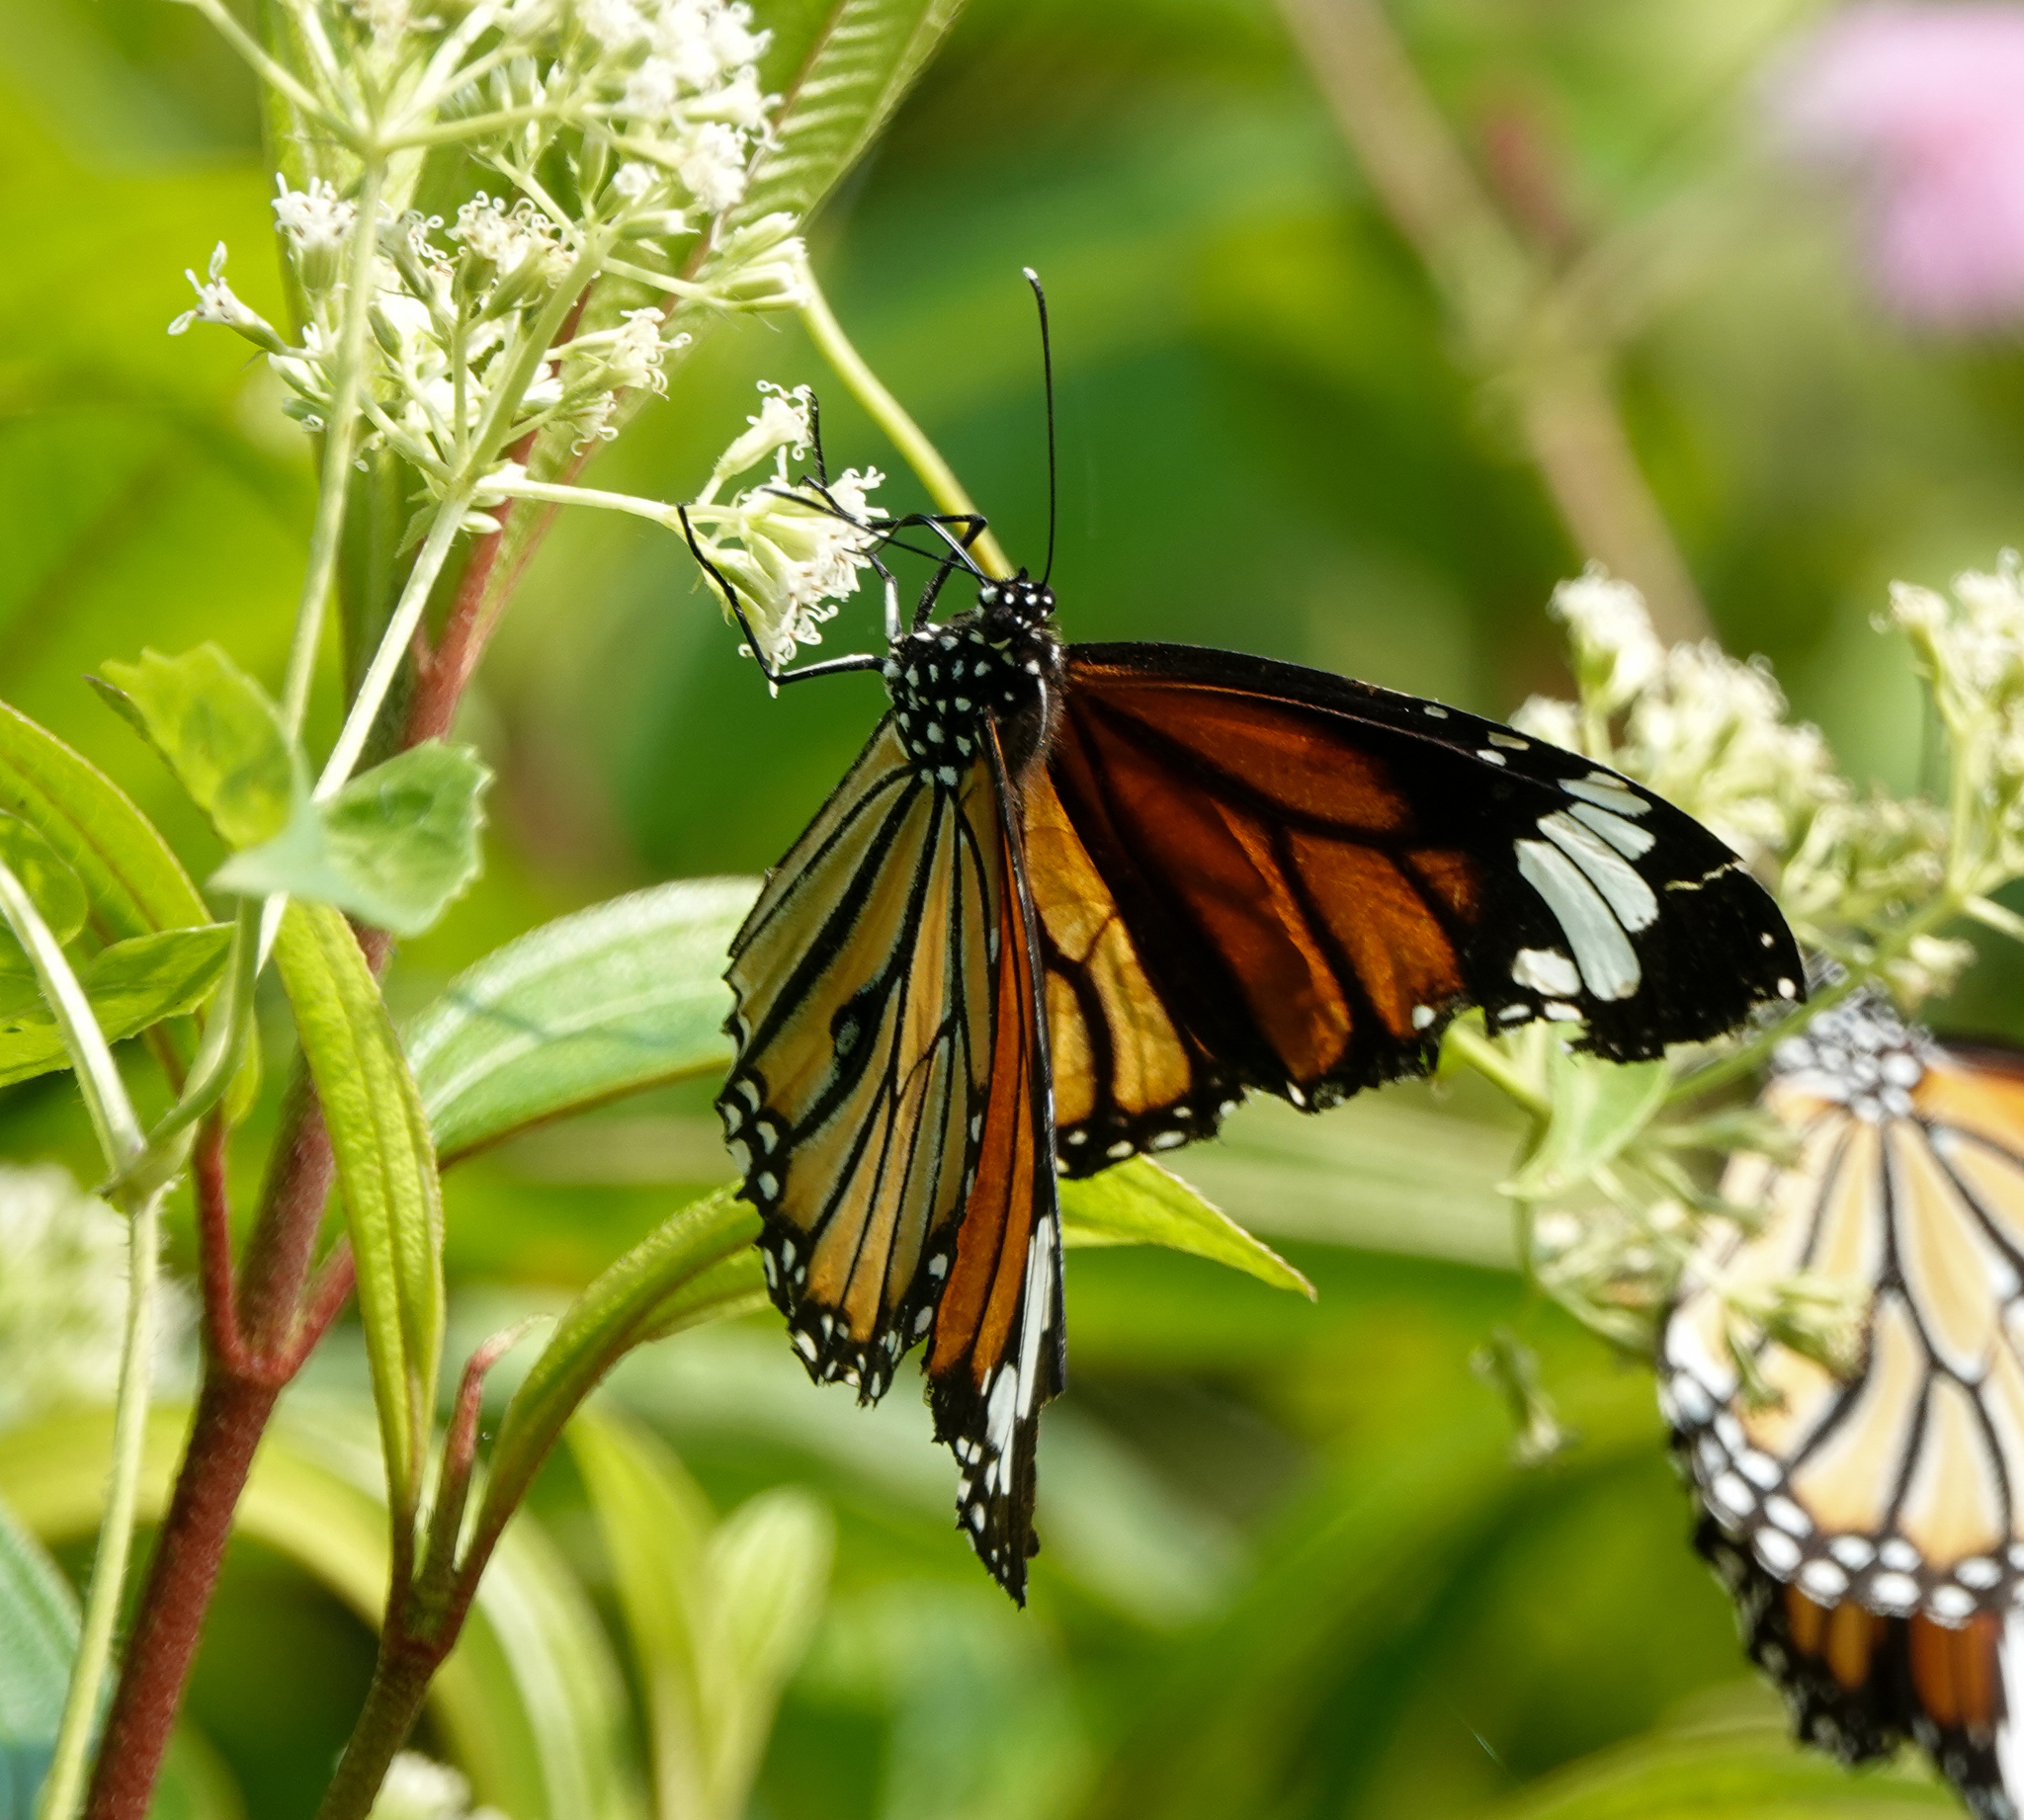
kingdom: Animalia
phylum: Arthropoda
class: Insecta
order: Lepidoptera
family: Nymphalidae
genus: Danaus
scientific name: Danaus genutia
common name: Common tiger butterfly
